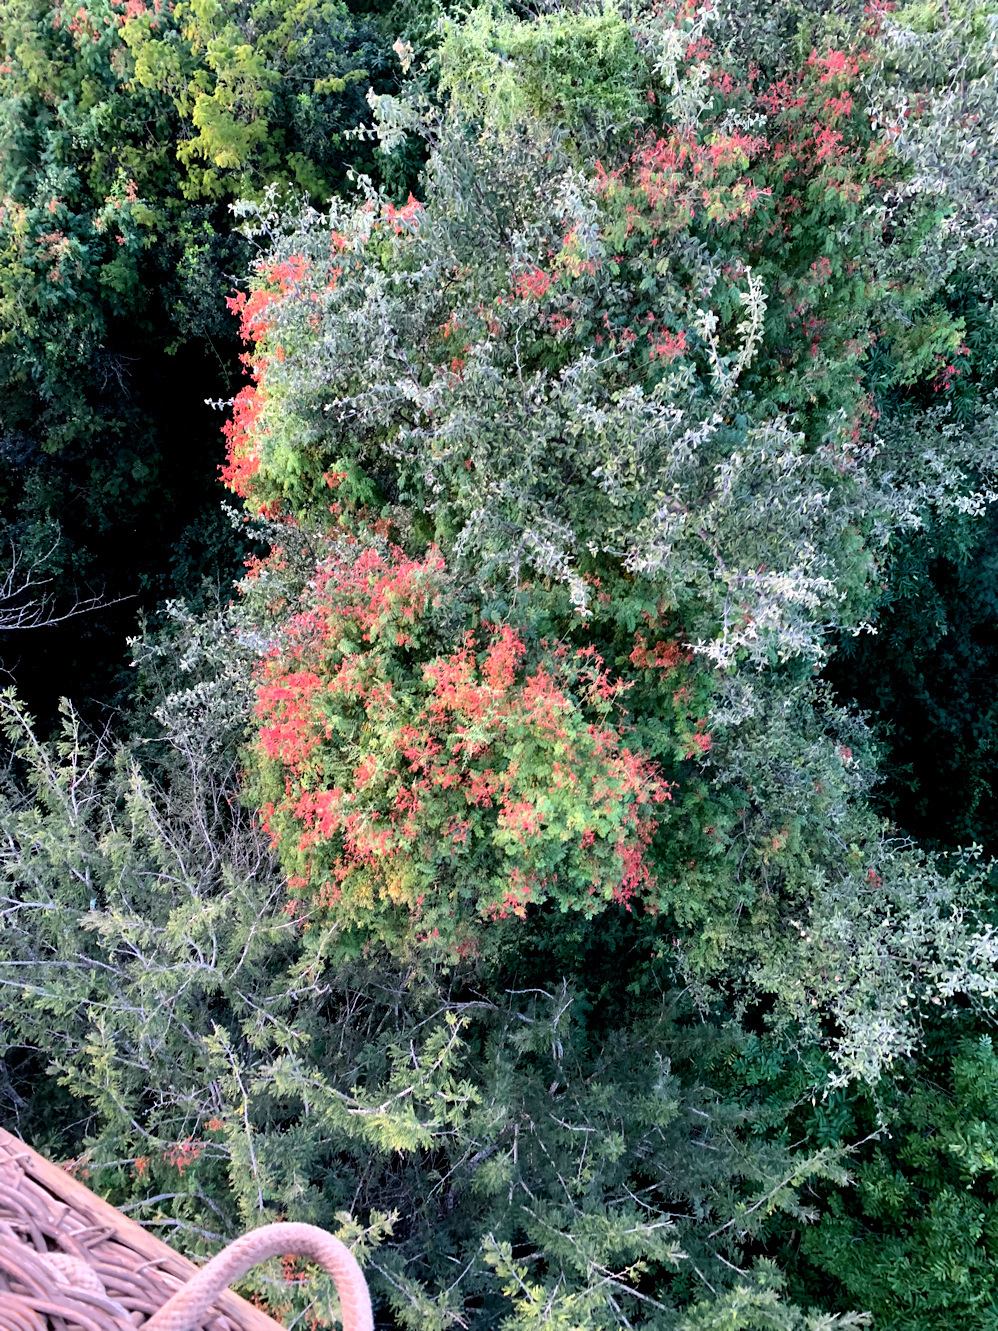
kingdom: Plantae
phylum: Tracheophyta
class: Magnoliopsida
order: Fabales
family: Fabaceae
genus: Pterolobium
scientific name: Pterolobium stellatum
